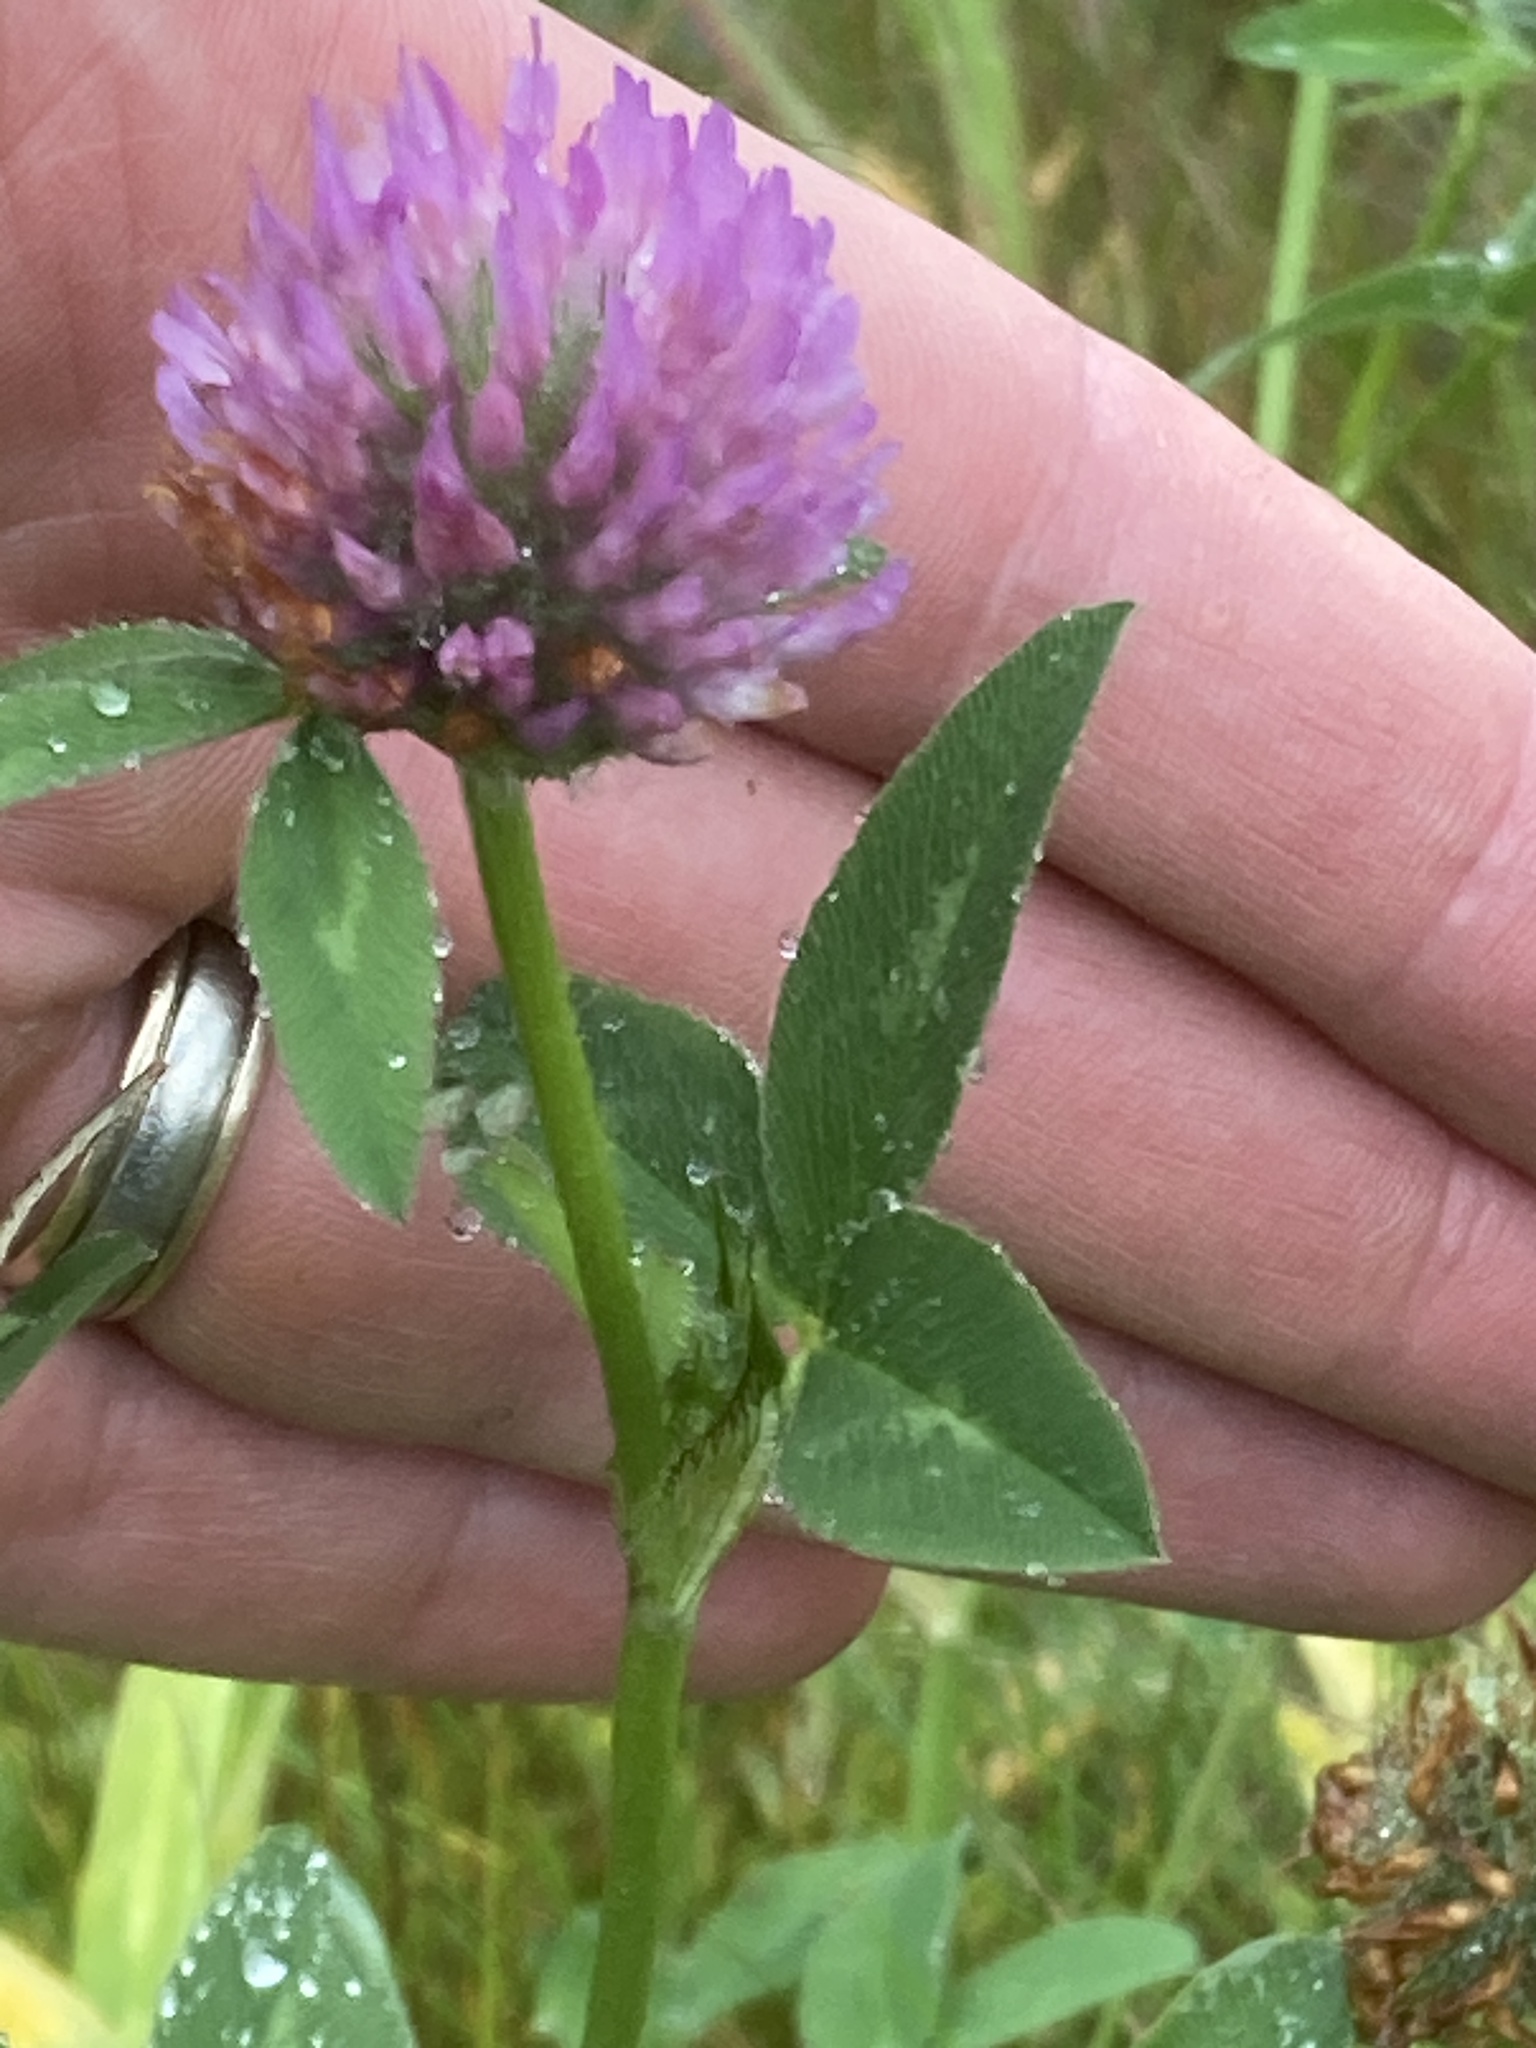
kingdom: Plantae
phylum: Tracheophyta
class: Magnoliopsida
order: Fabales
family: Fabaceae
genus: Trifolium
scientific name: Trifolium pratense
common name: Red clover
